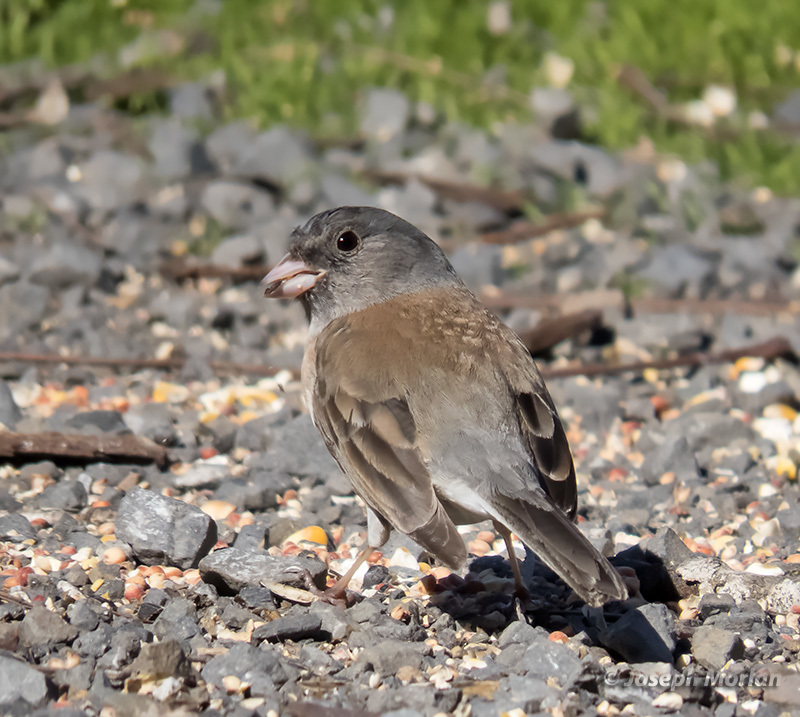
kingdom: Animalia
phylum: Chordata
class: Aves
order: Passeriformes
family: Passerellidae
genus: Junco
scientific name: Junco hyemalis
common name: Dark-eyed junco
